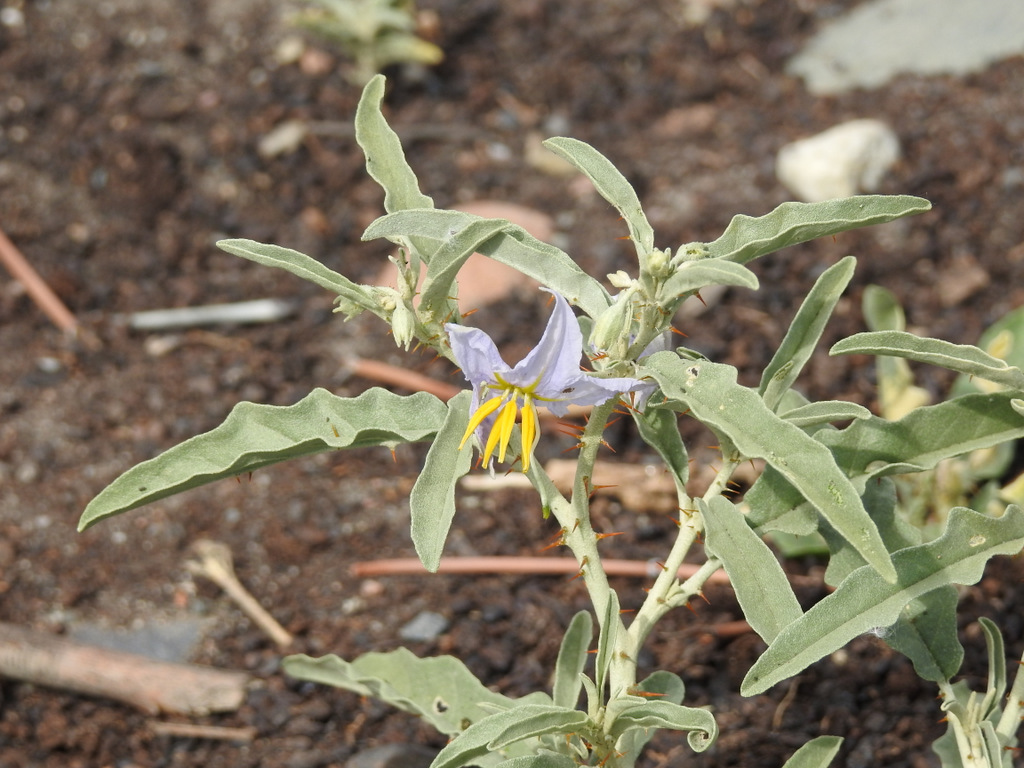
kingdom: Plantae
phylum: Tracheophyta
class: Magnoliopsida
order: Solanales
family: Solanaceae
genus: Solanum
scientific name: Solanum elaeagnifolium
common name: Silverleaf nightshade
